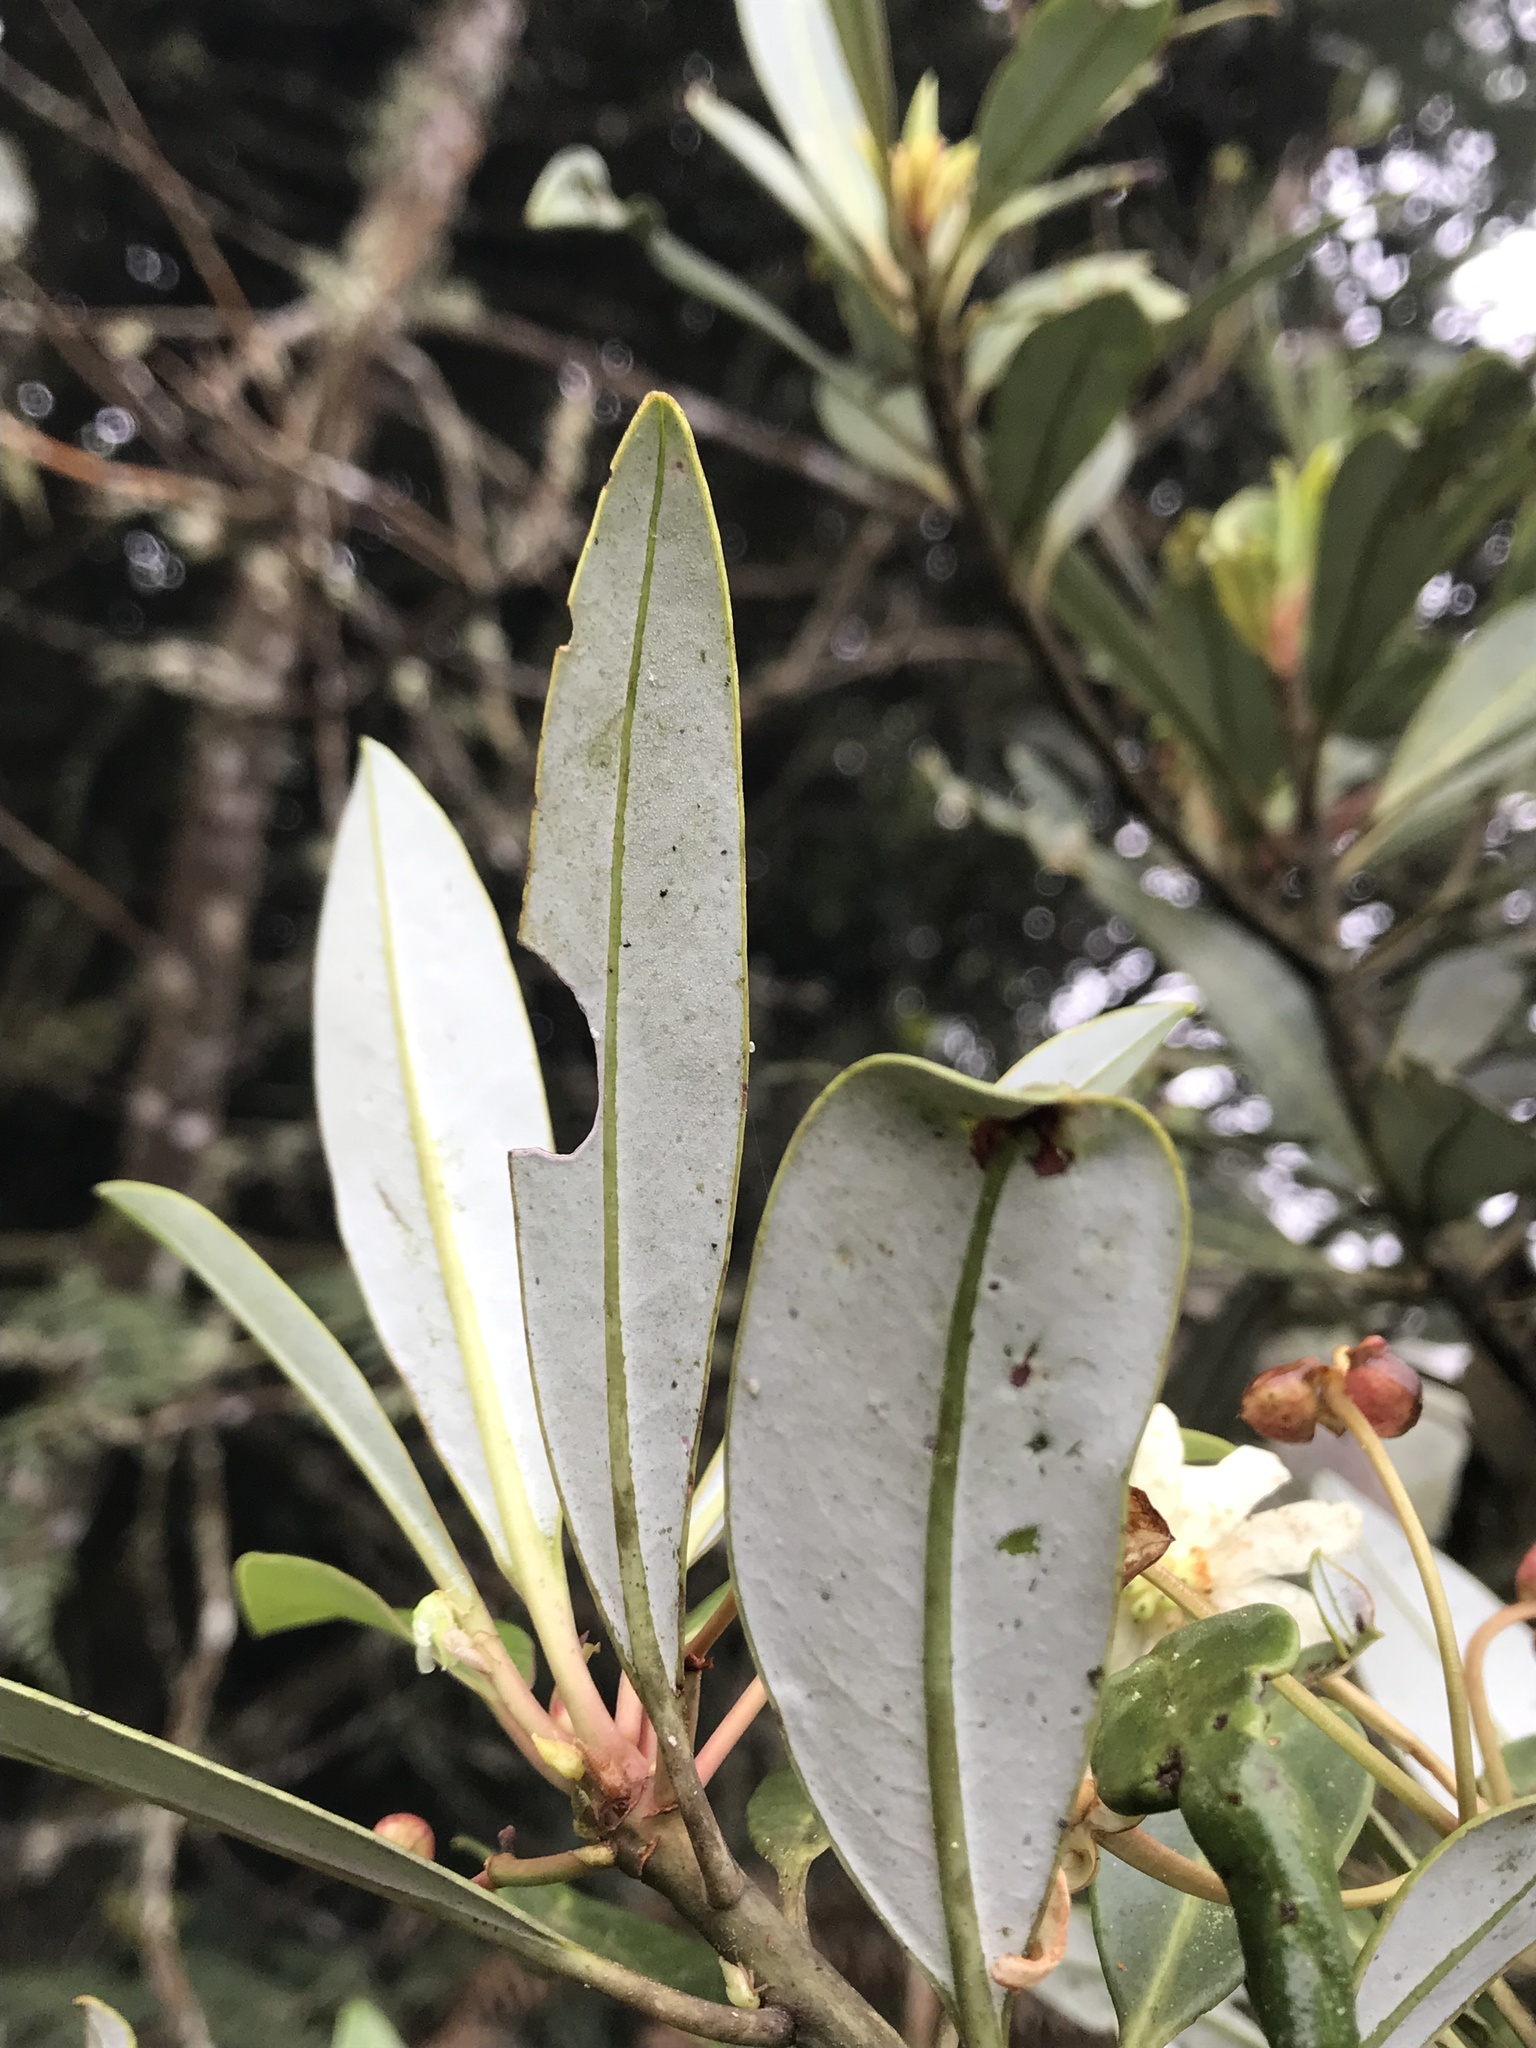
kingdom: Plantae
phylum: Tracheophyta
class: Magnoliopsida
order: Canellales
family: Winteraceae
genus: Drimys
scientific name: Drimys granadensis
